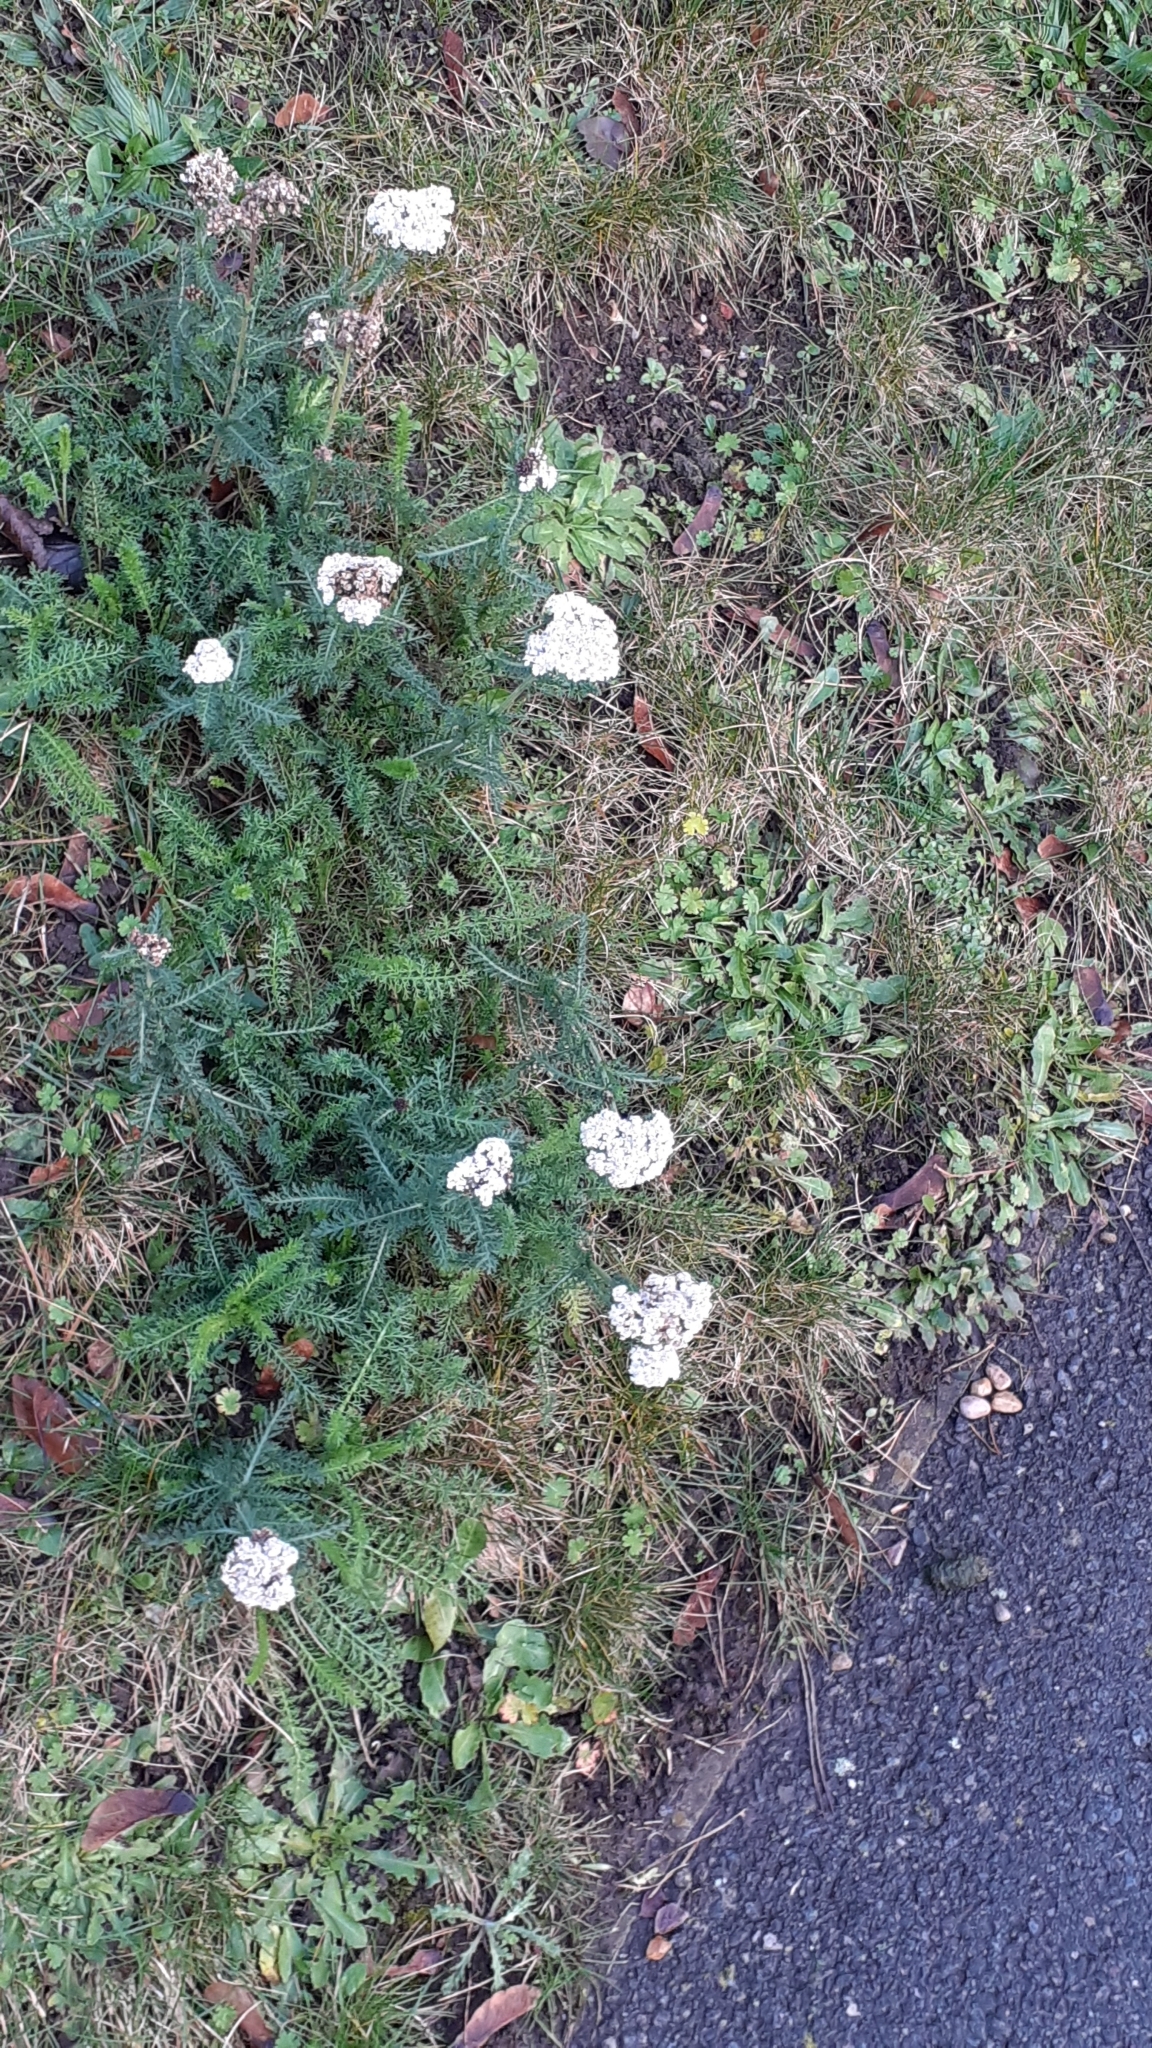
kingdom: Plantae
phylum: Tracheophyta
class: Magnoliopsida
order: Asterales
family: Asteraceae
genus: Achillea
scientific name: Achillea millefolium
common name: Yarrow
